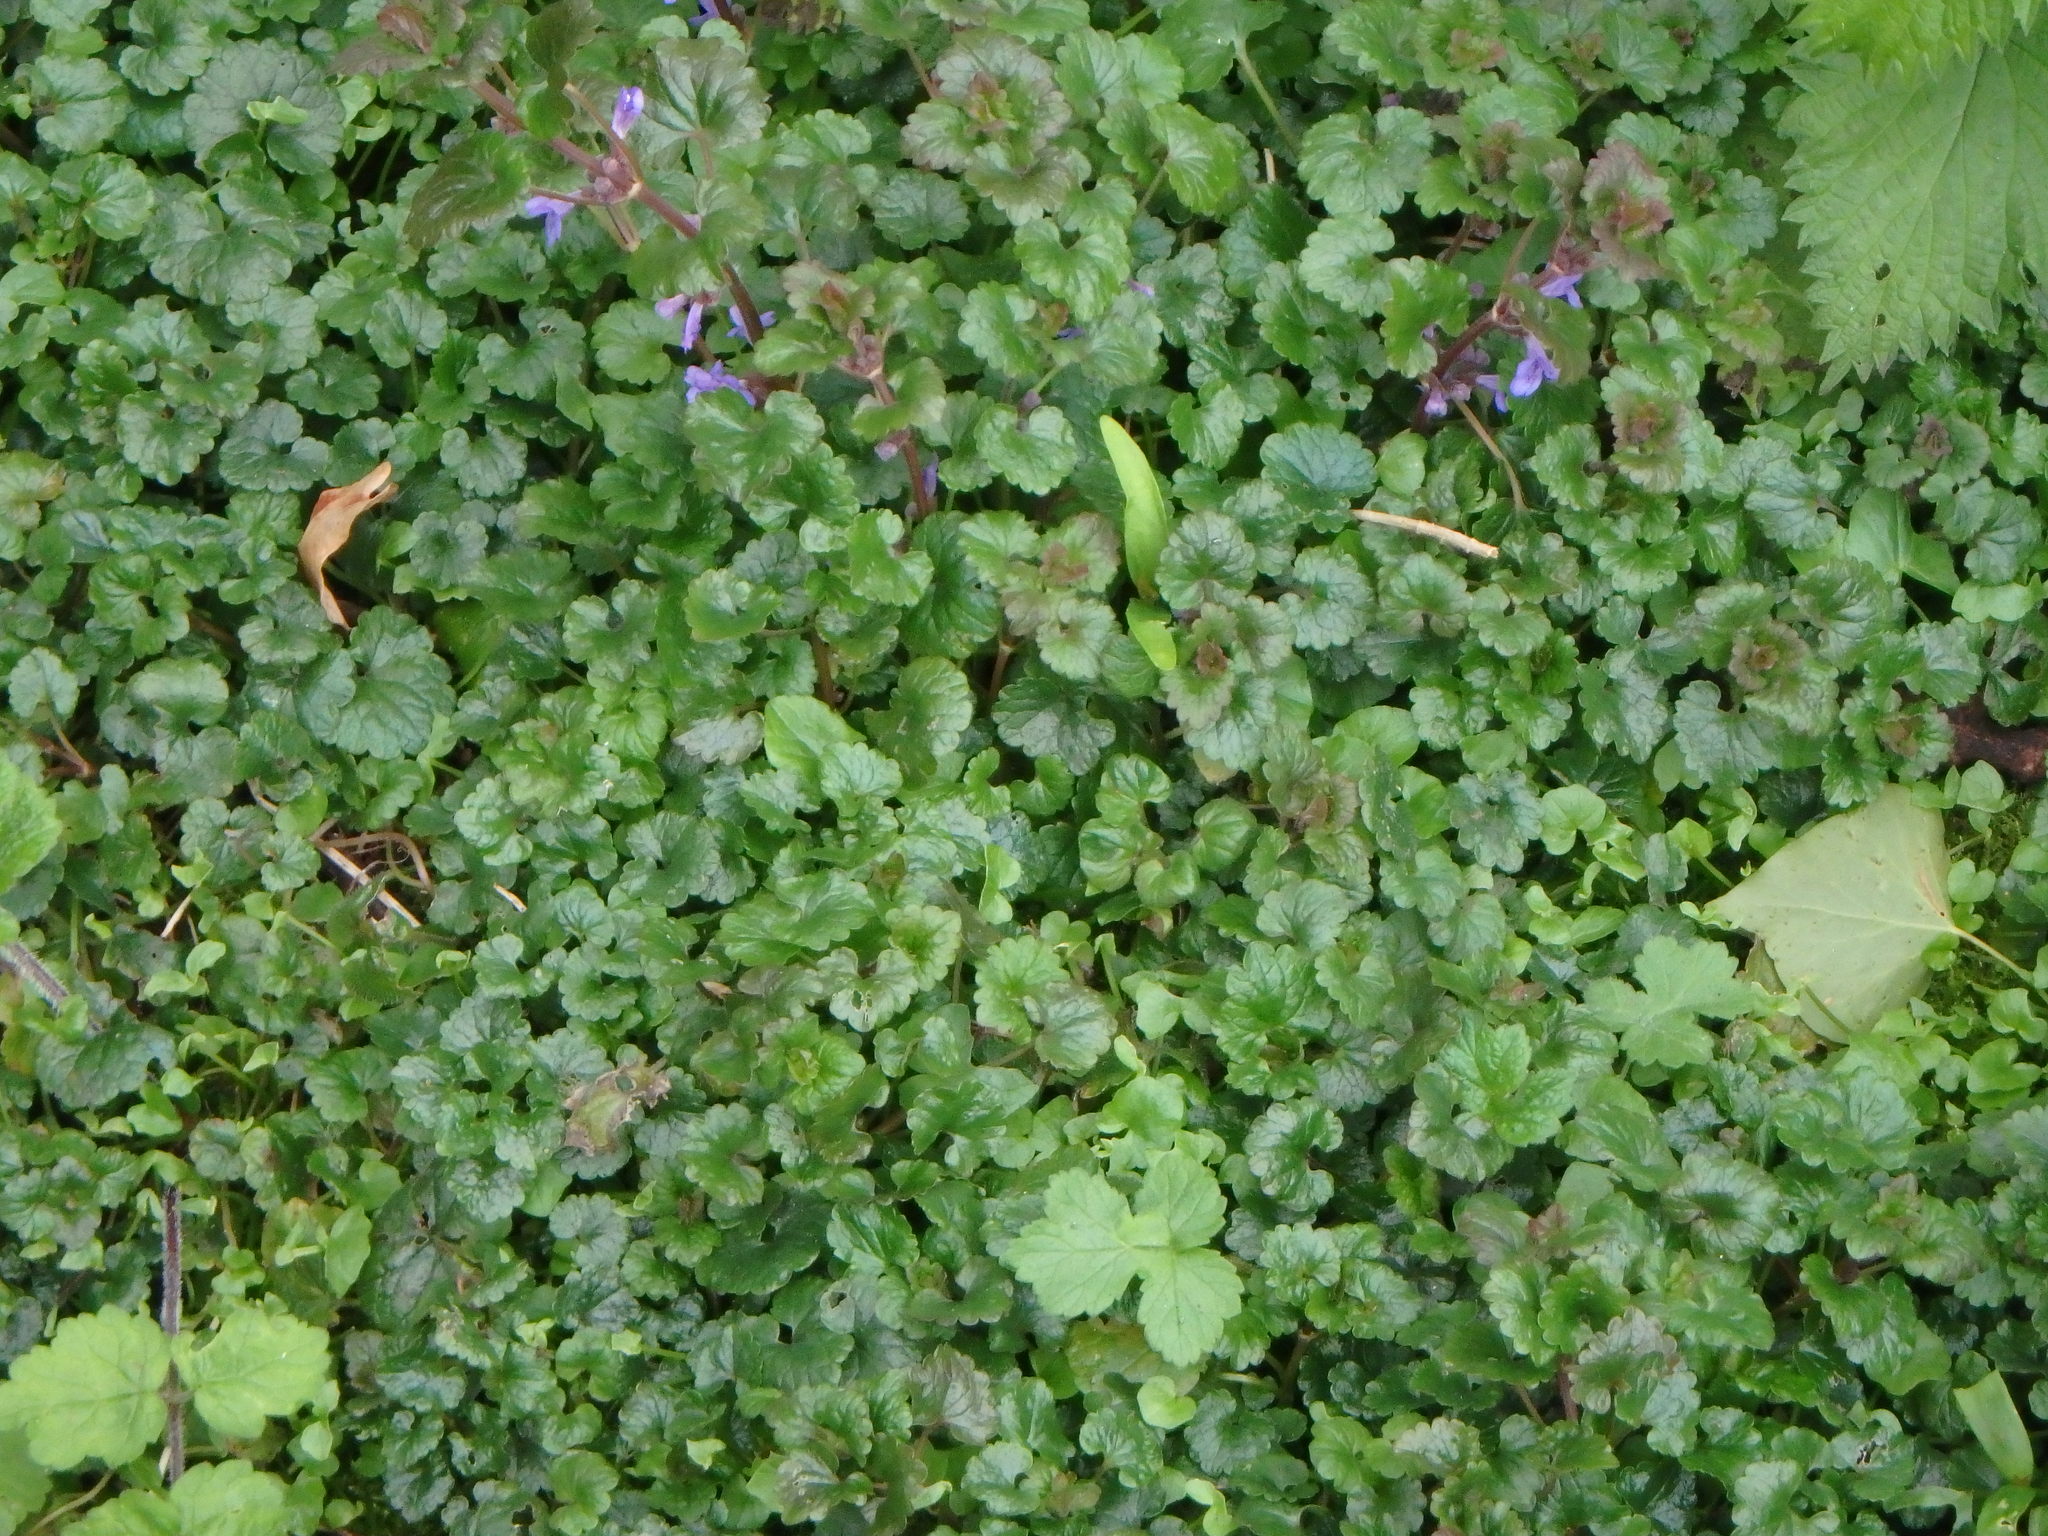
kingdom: Plantae
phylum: Tracheophyta
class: Magnoliopsida
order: Lamiales
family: Lamiaceae
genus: Glechoma
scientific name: Glechoma hederacea
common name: Ground ivy
